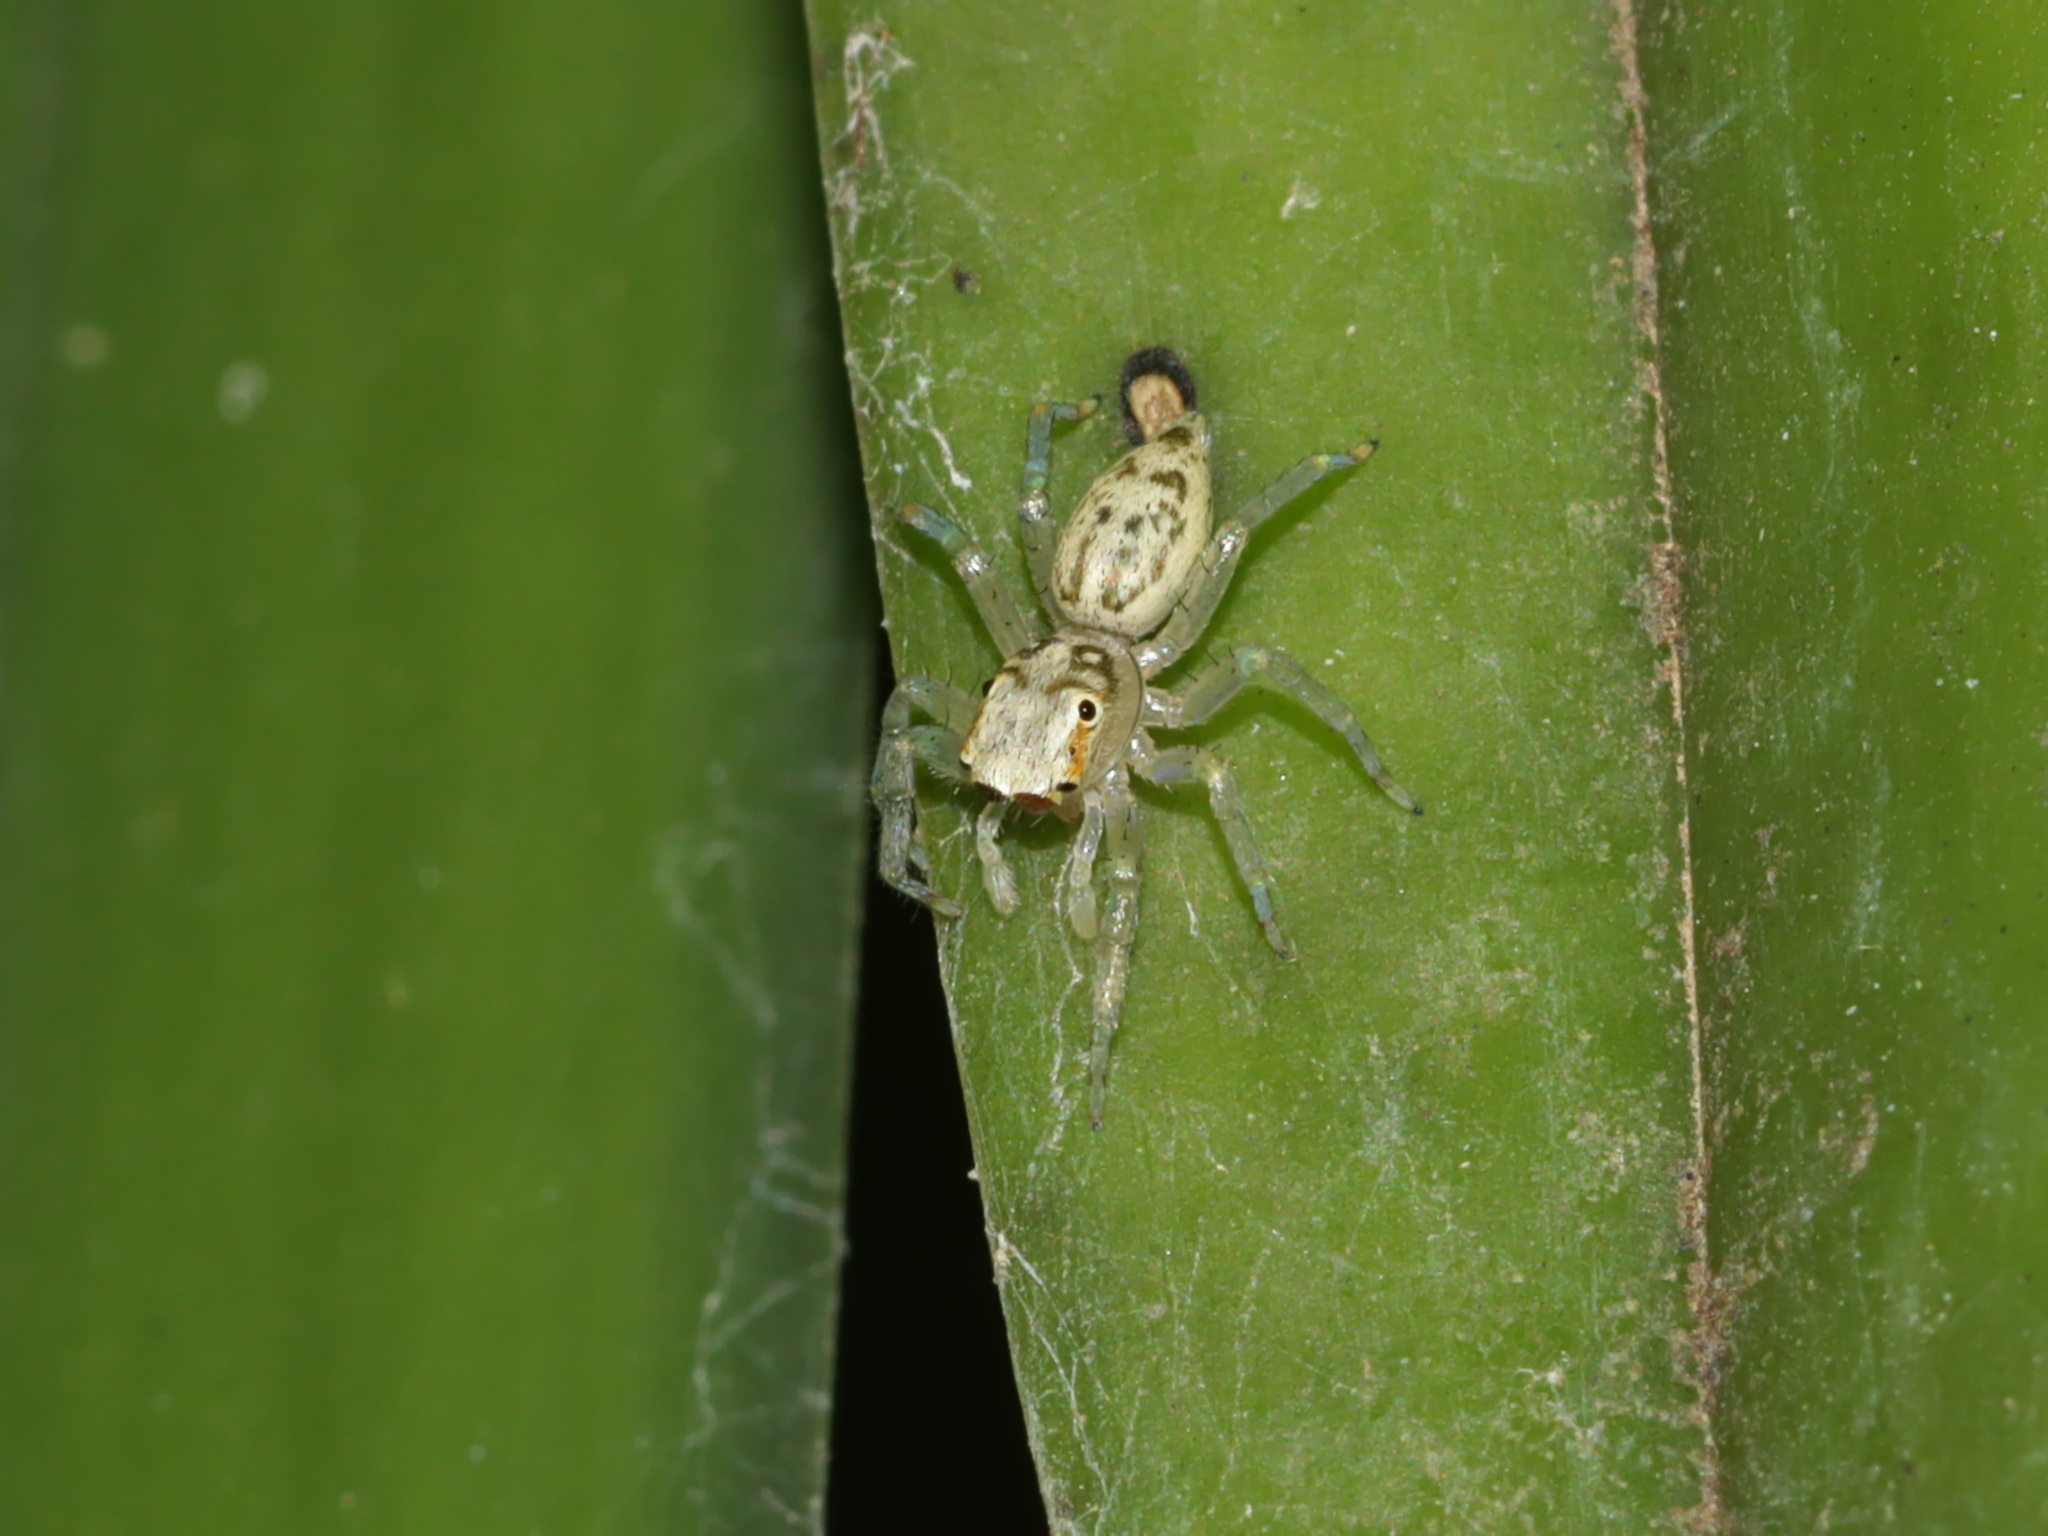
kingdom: Animalia
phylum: Arthropoda
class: Arachnida
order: Araneae
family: Salticidae
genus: Phintelloides
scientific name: Phintelloides versicolor
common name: Jumping spider
